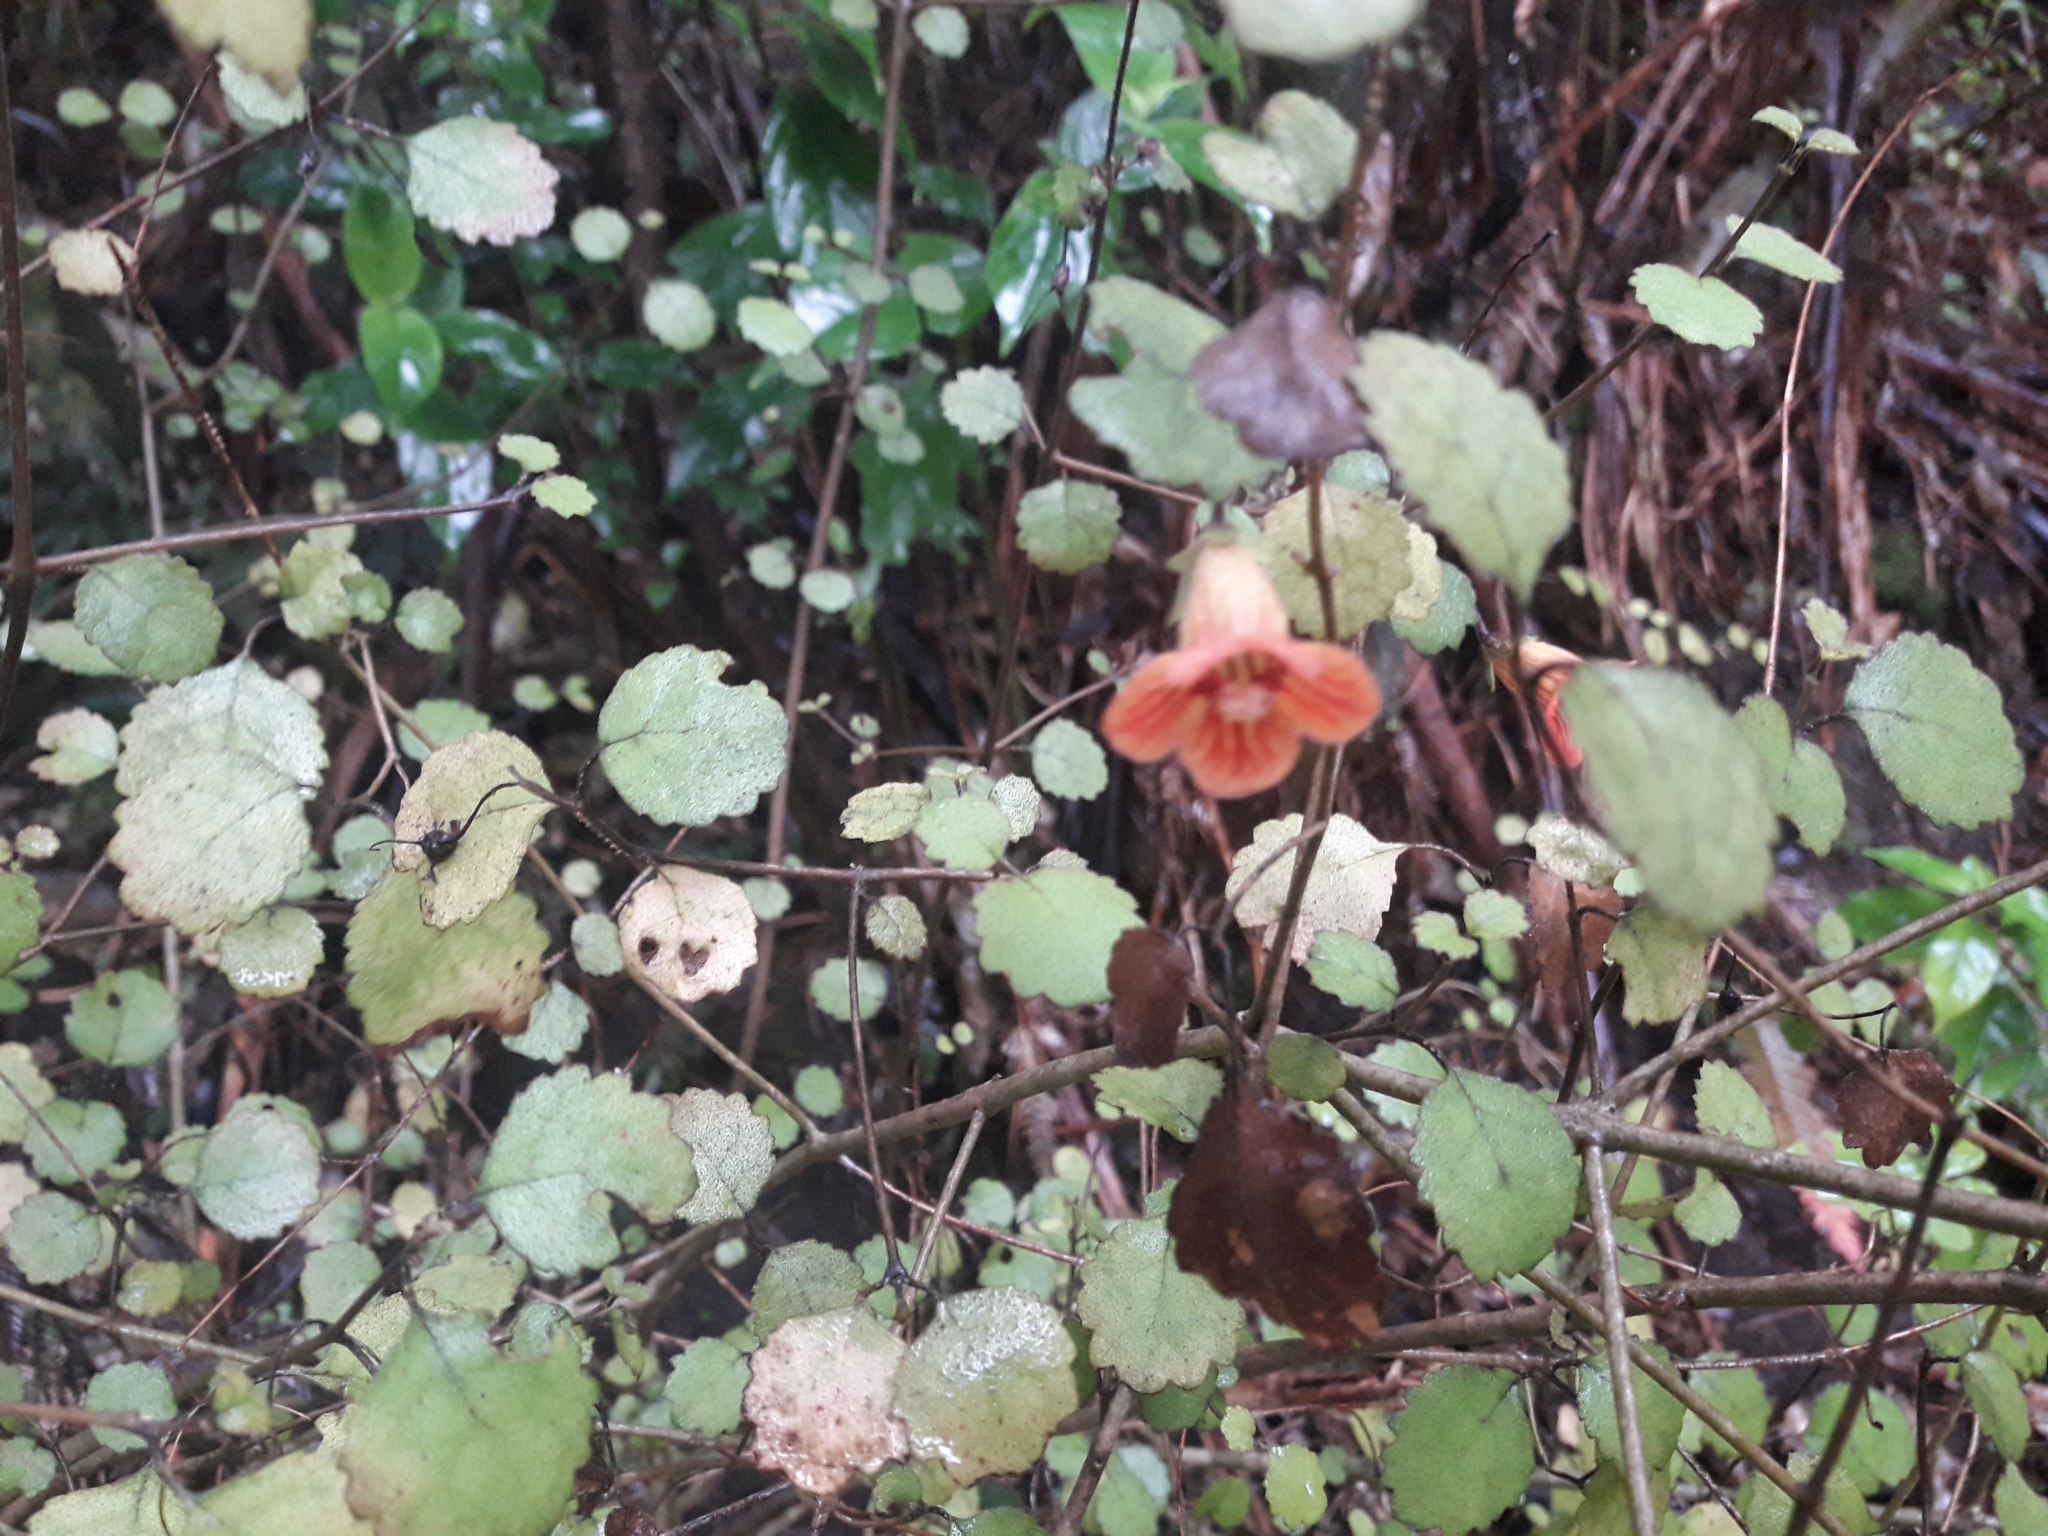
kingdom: Plantae
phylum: Tracheophyta
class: Magnoliopsida
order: Lamiales
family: Gesneriaceae
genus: Rhabdothamnus
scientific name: Rhabdothamnus solandri
